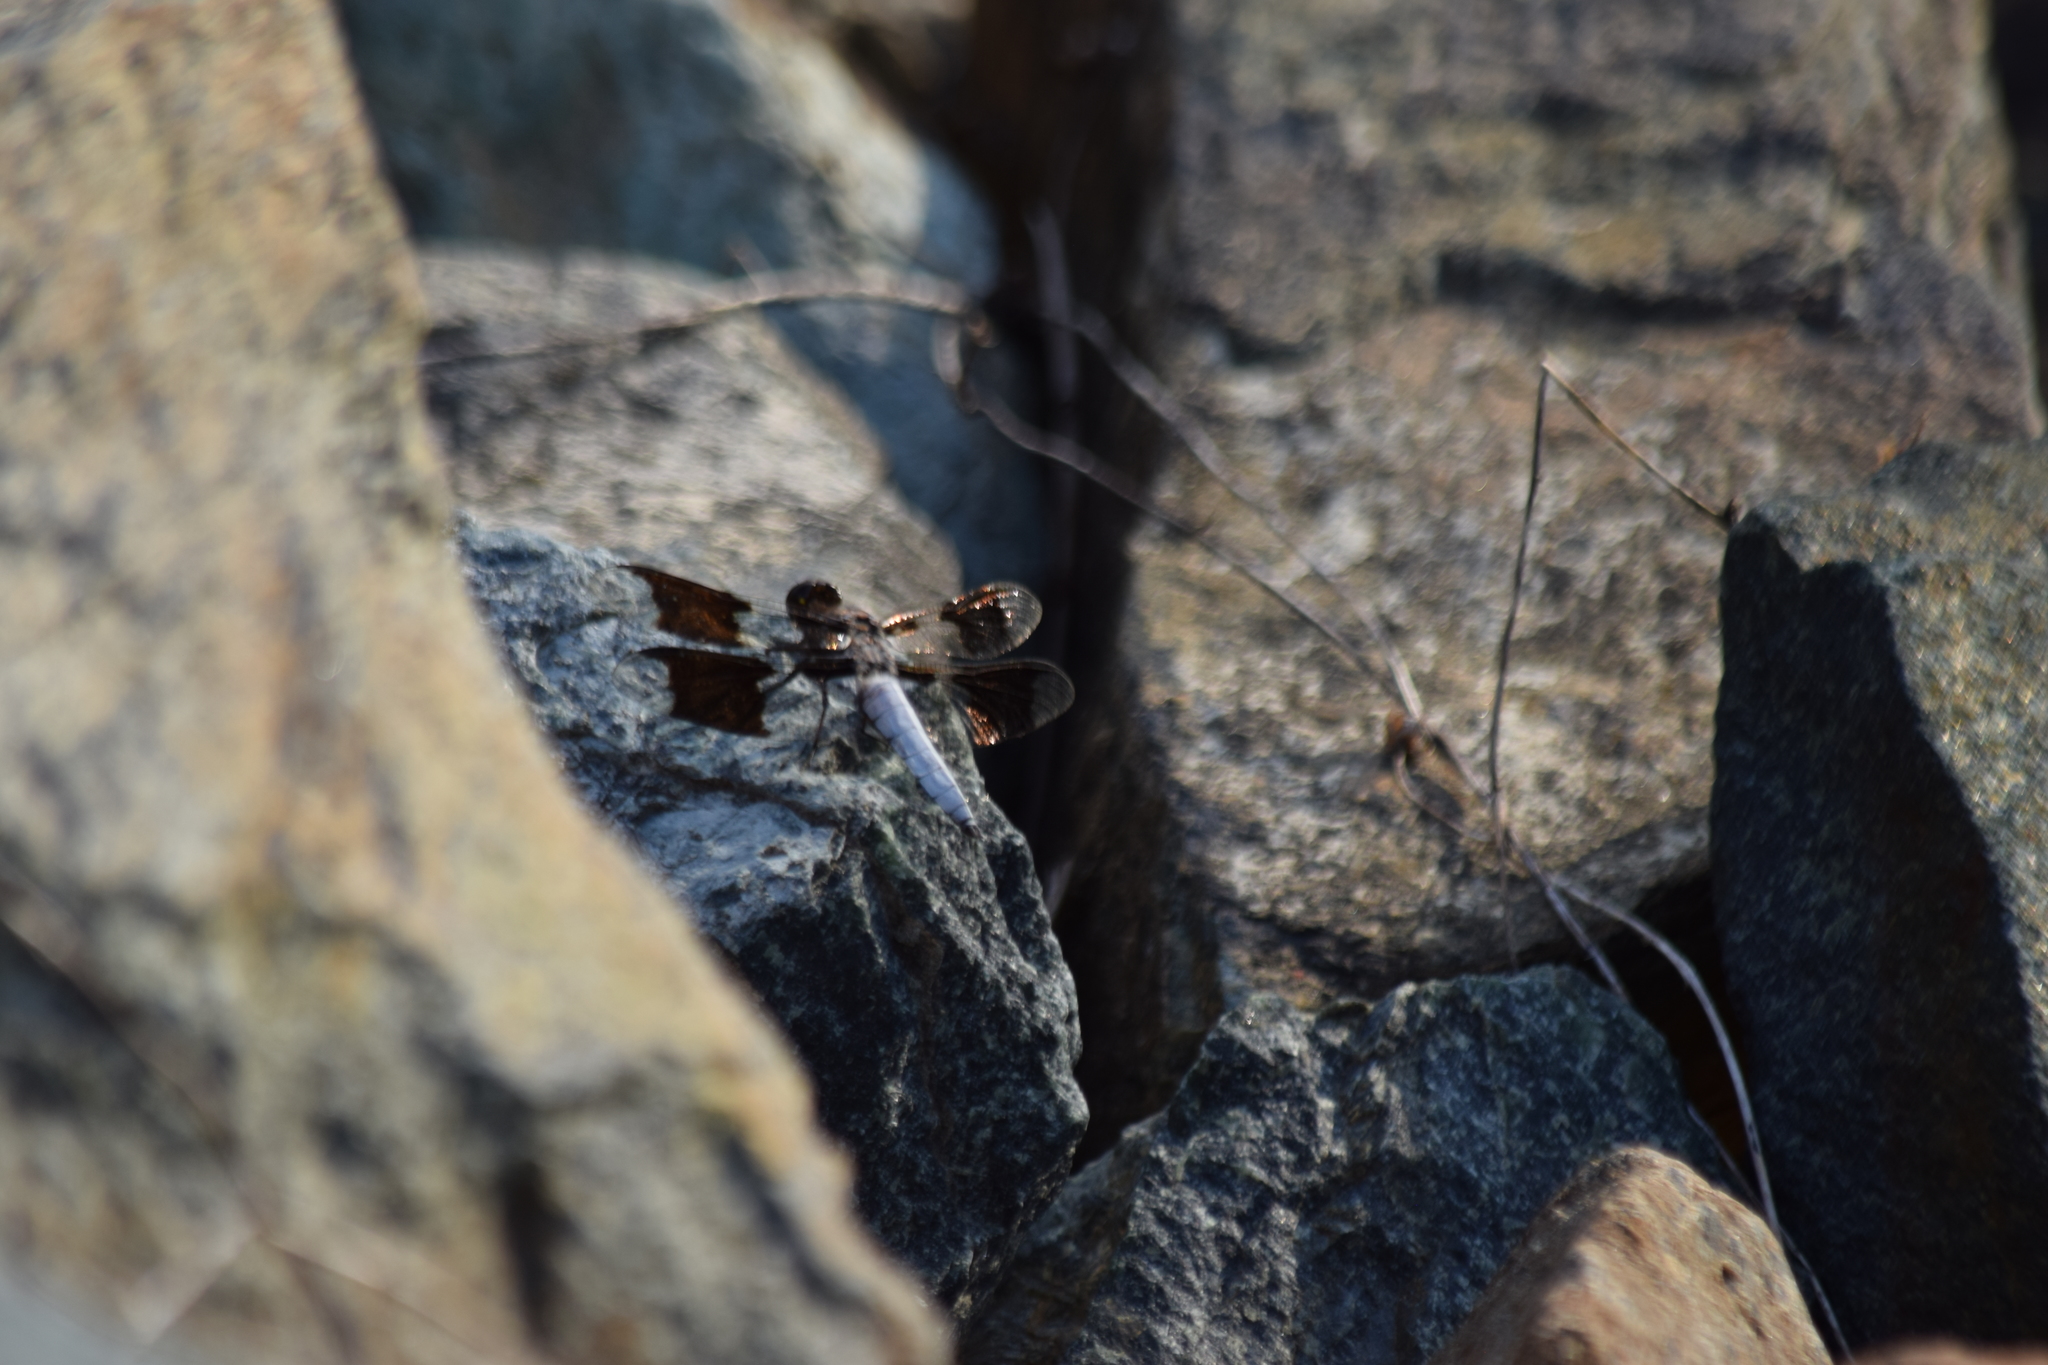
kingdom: Animalia
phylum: Arthropoda
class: Insecta
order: Odonata
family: Libellulidae
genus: Plathemis
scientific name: Plathemis lydia
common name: Common whitetail
